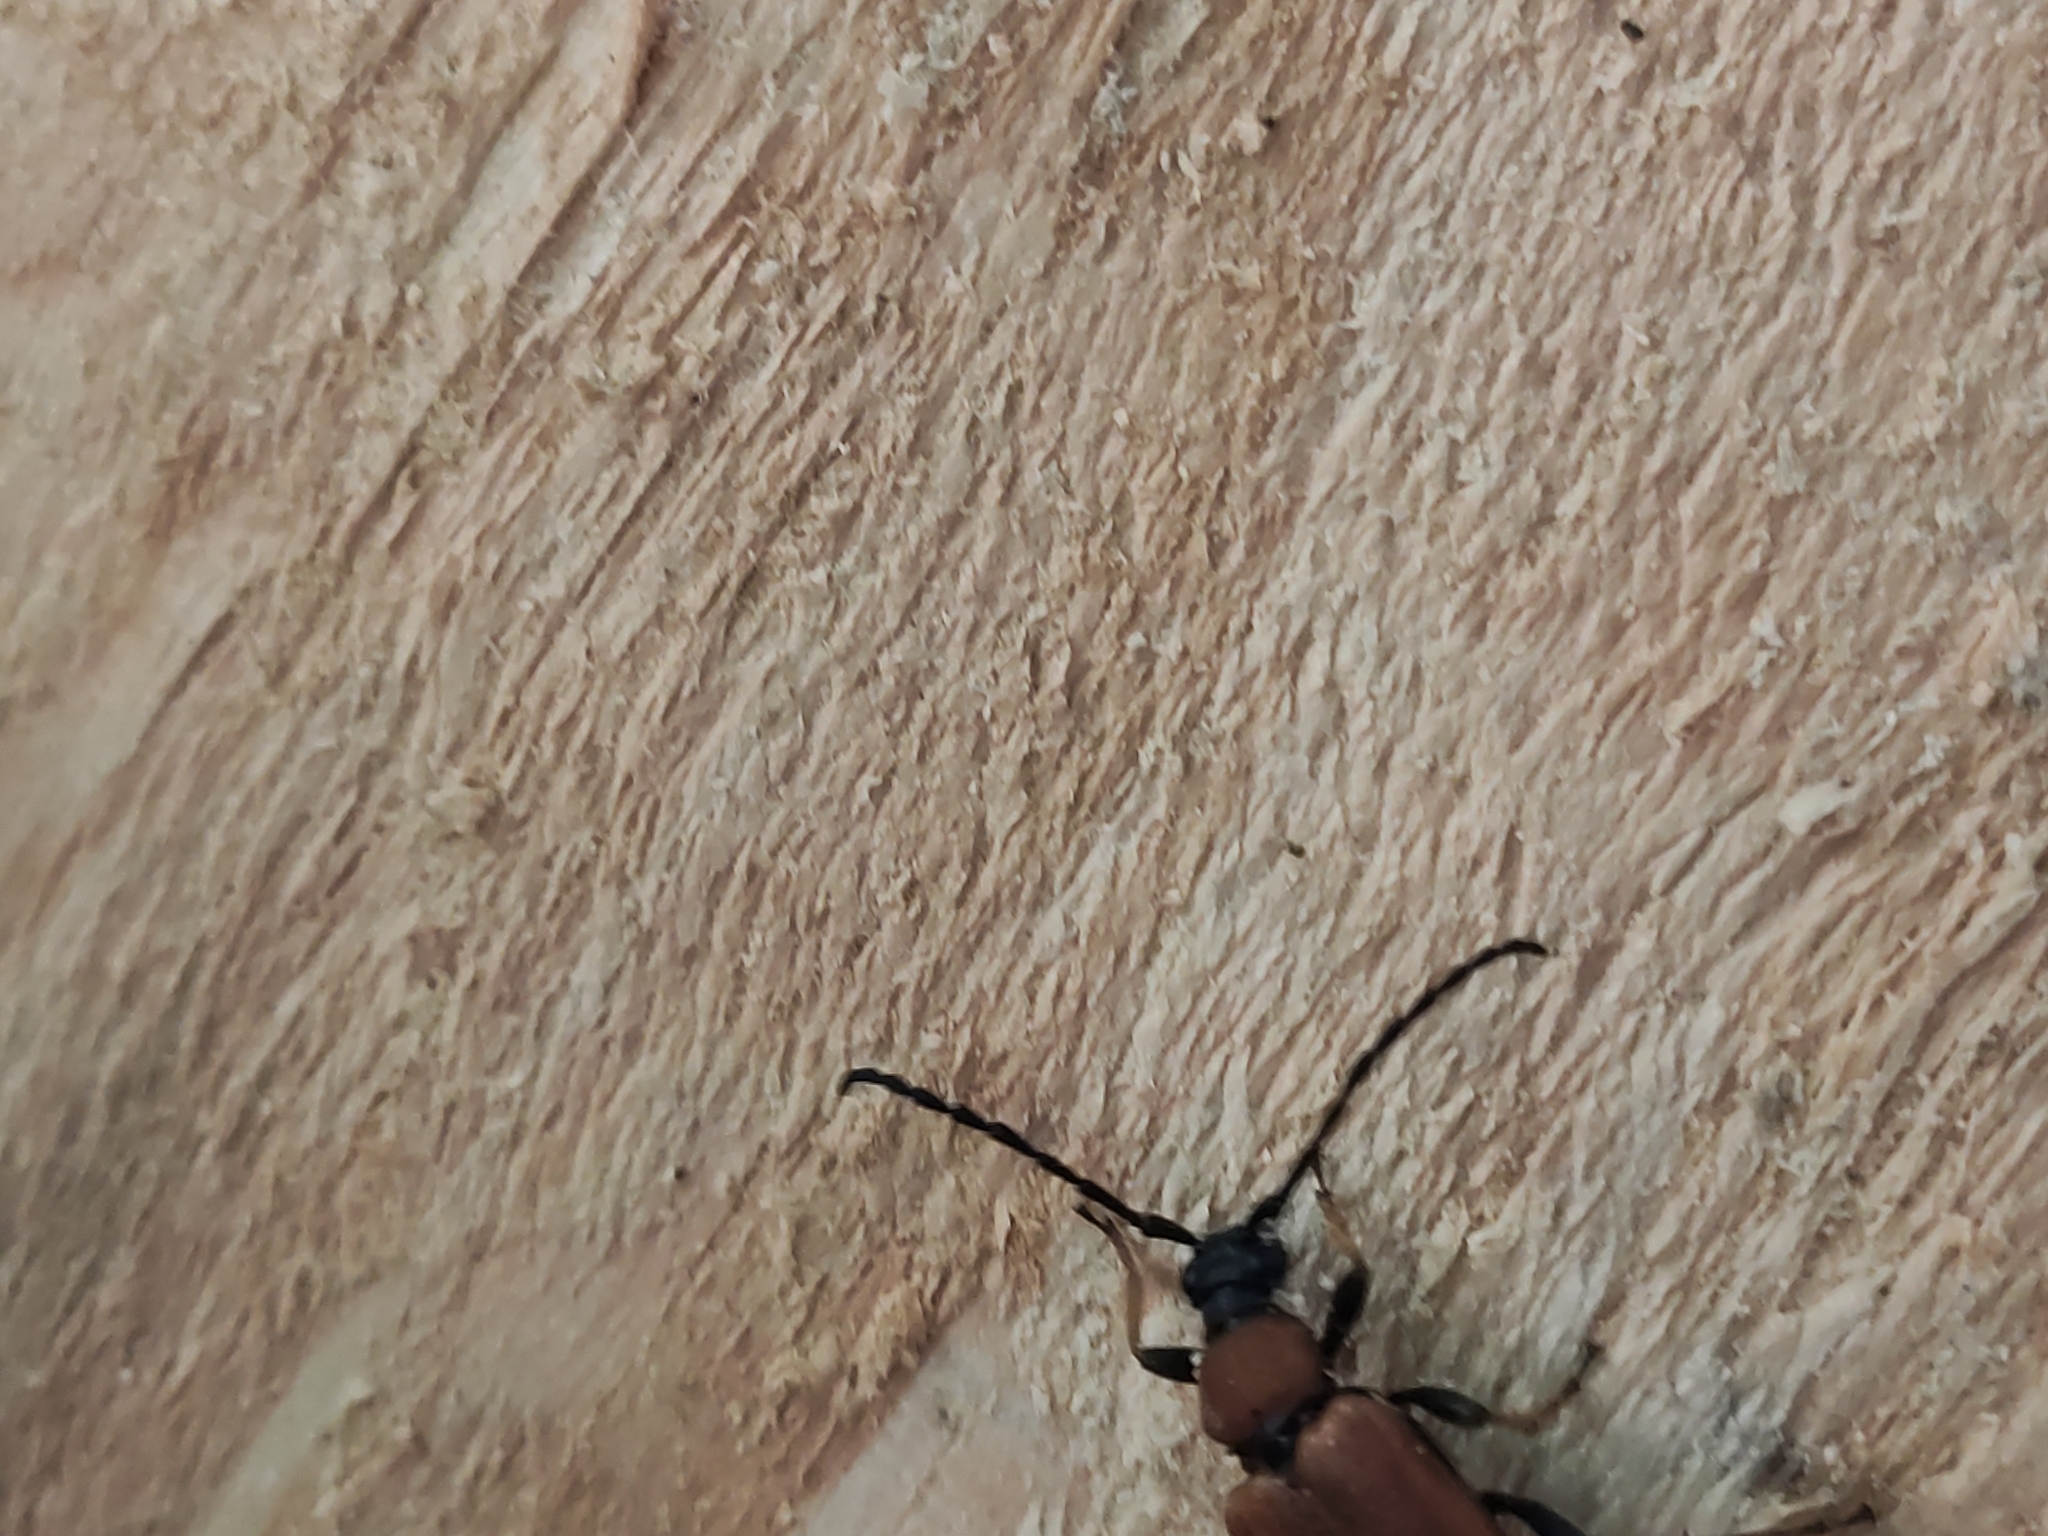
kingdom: Animalia
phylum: Arthropoda
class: Insecta
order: Coleoptera
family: Cerambycidae
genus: Stictoleptura
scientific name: Stictoleptura rubra
